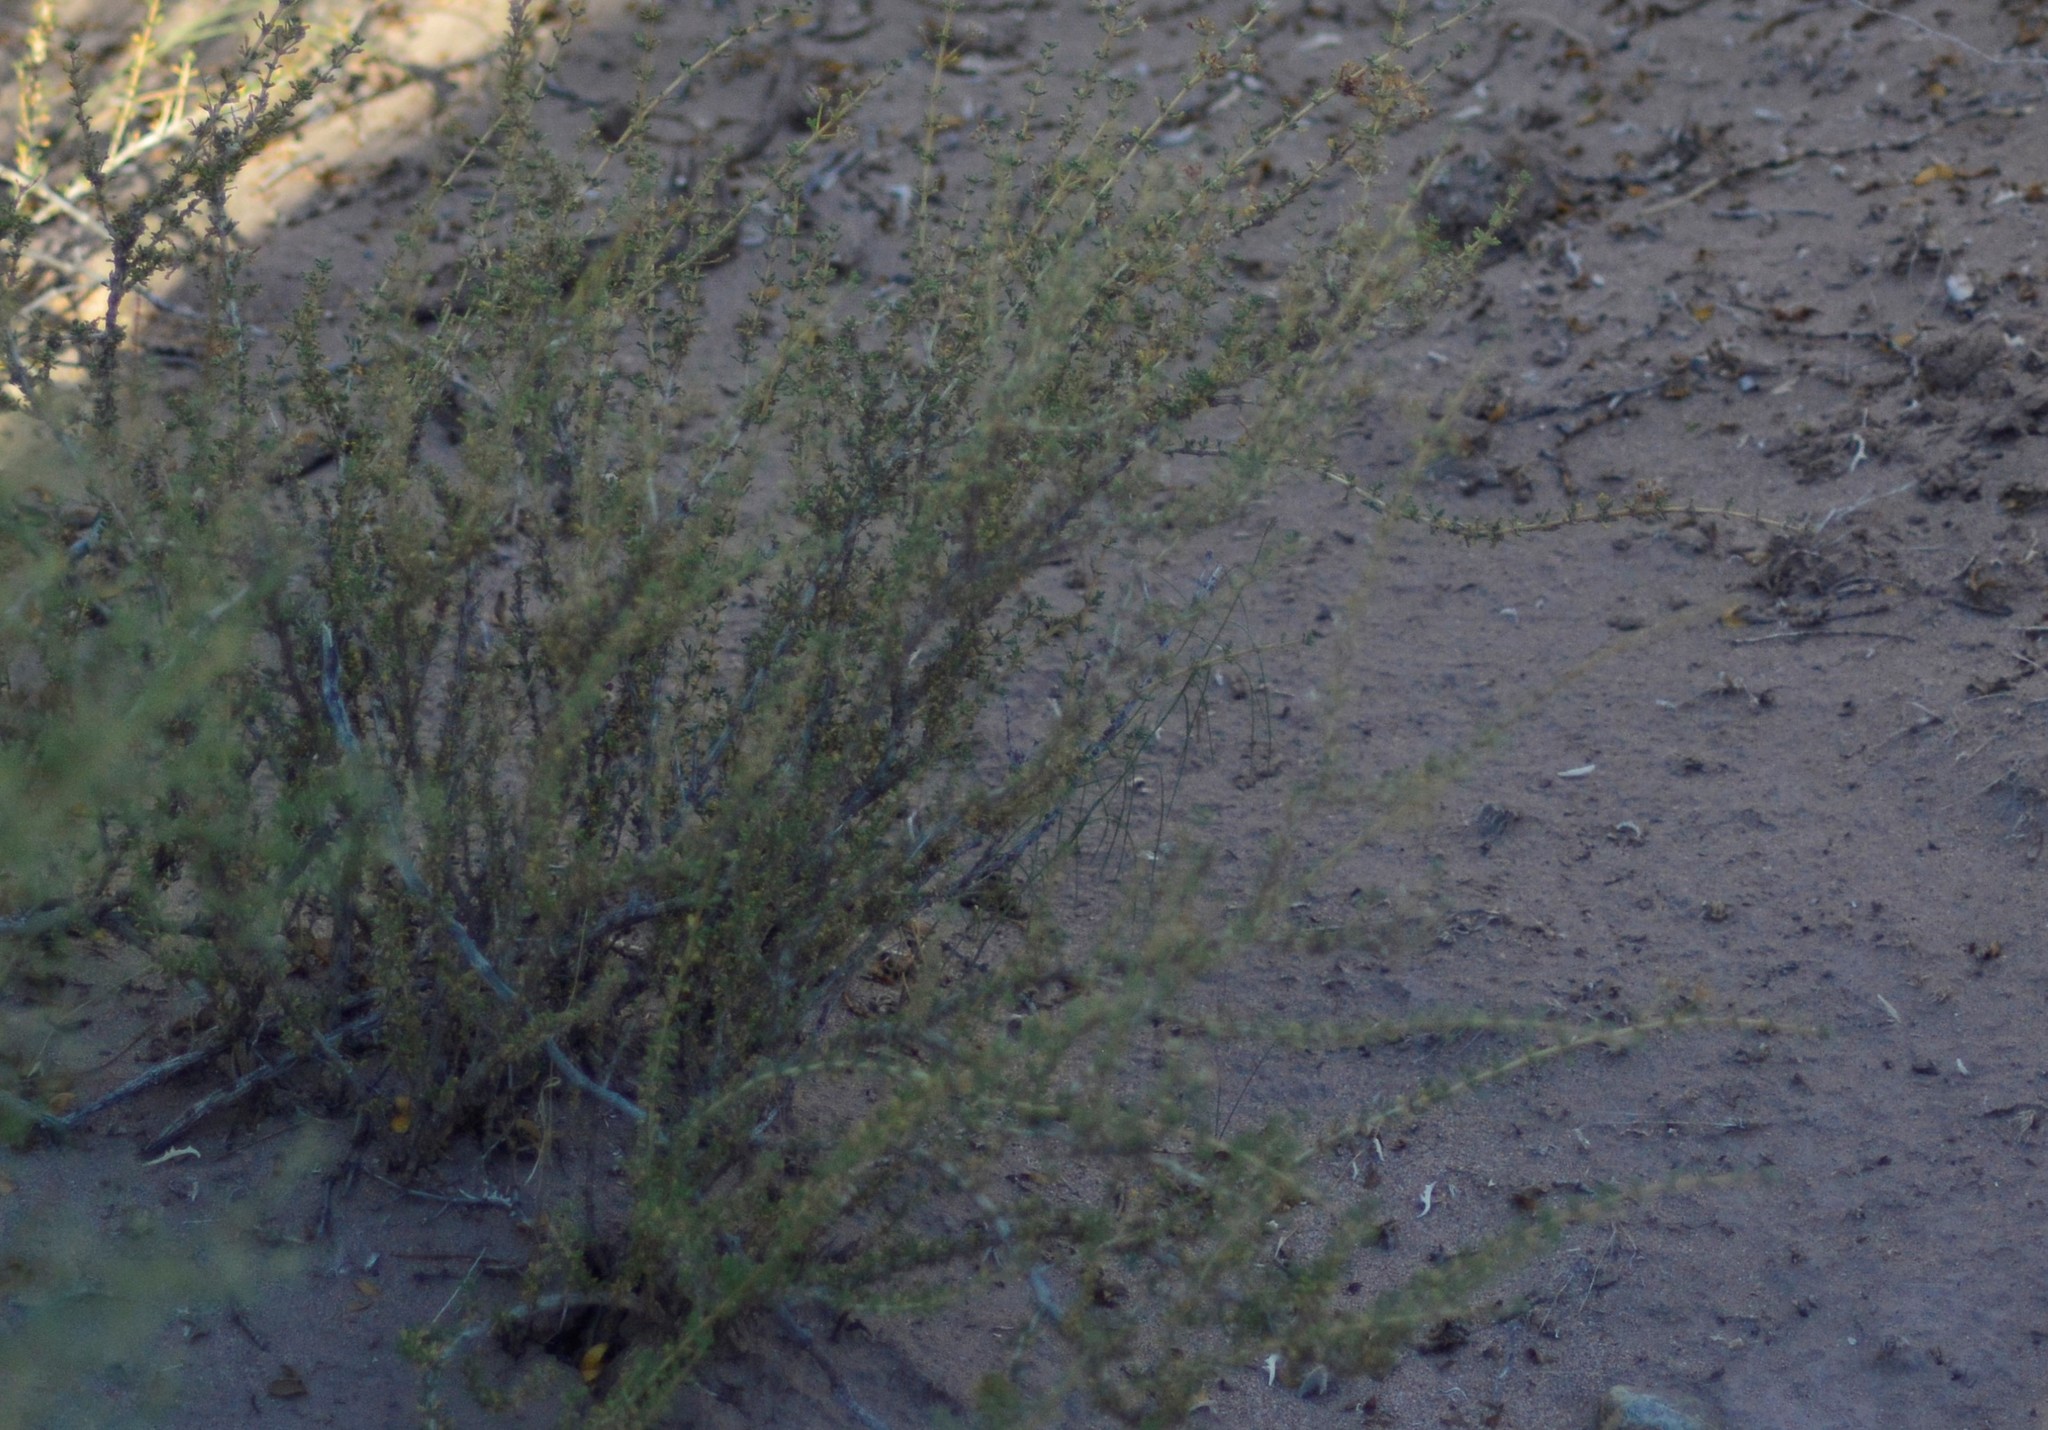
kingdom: Plantae
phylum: Tracheophyta
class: Magnoliopsida
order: Lamiales
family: Verbenaceae
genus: Acantholippia
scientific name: Acantholippia seriphioides
